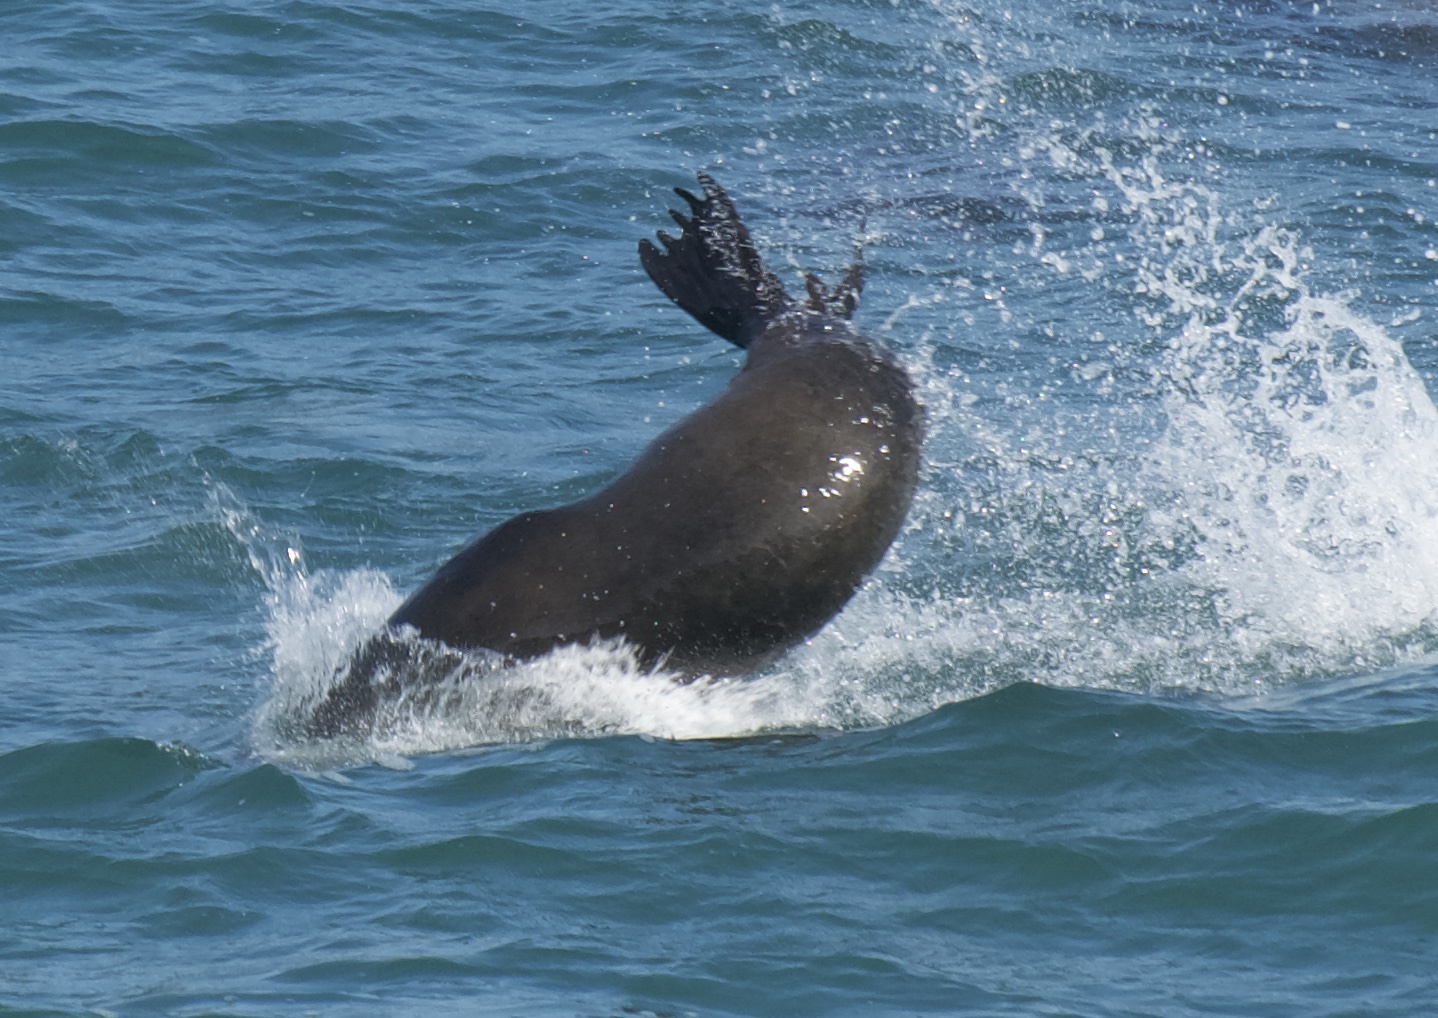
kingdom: Animalia
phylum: Chordata
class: Mammalia
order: Carnivora
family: Otariidae
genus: Zalophus
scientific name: Zalophus californianus
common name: California sea lion
